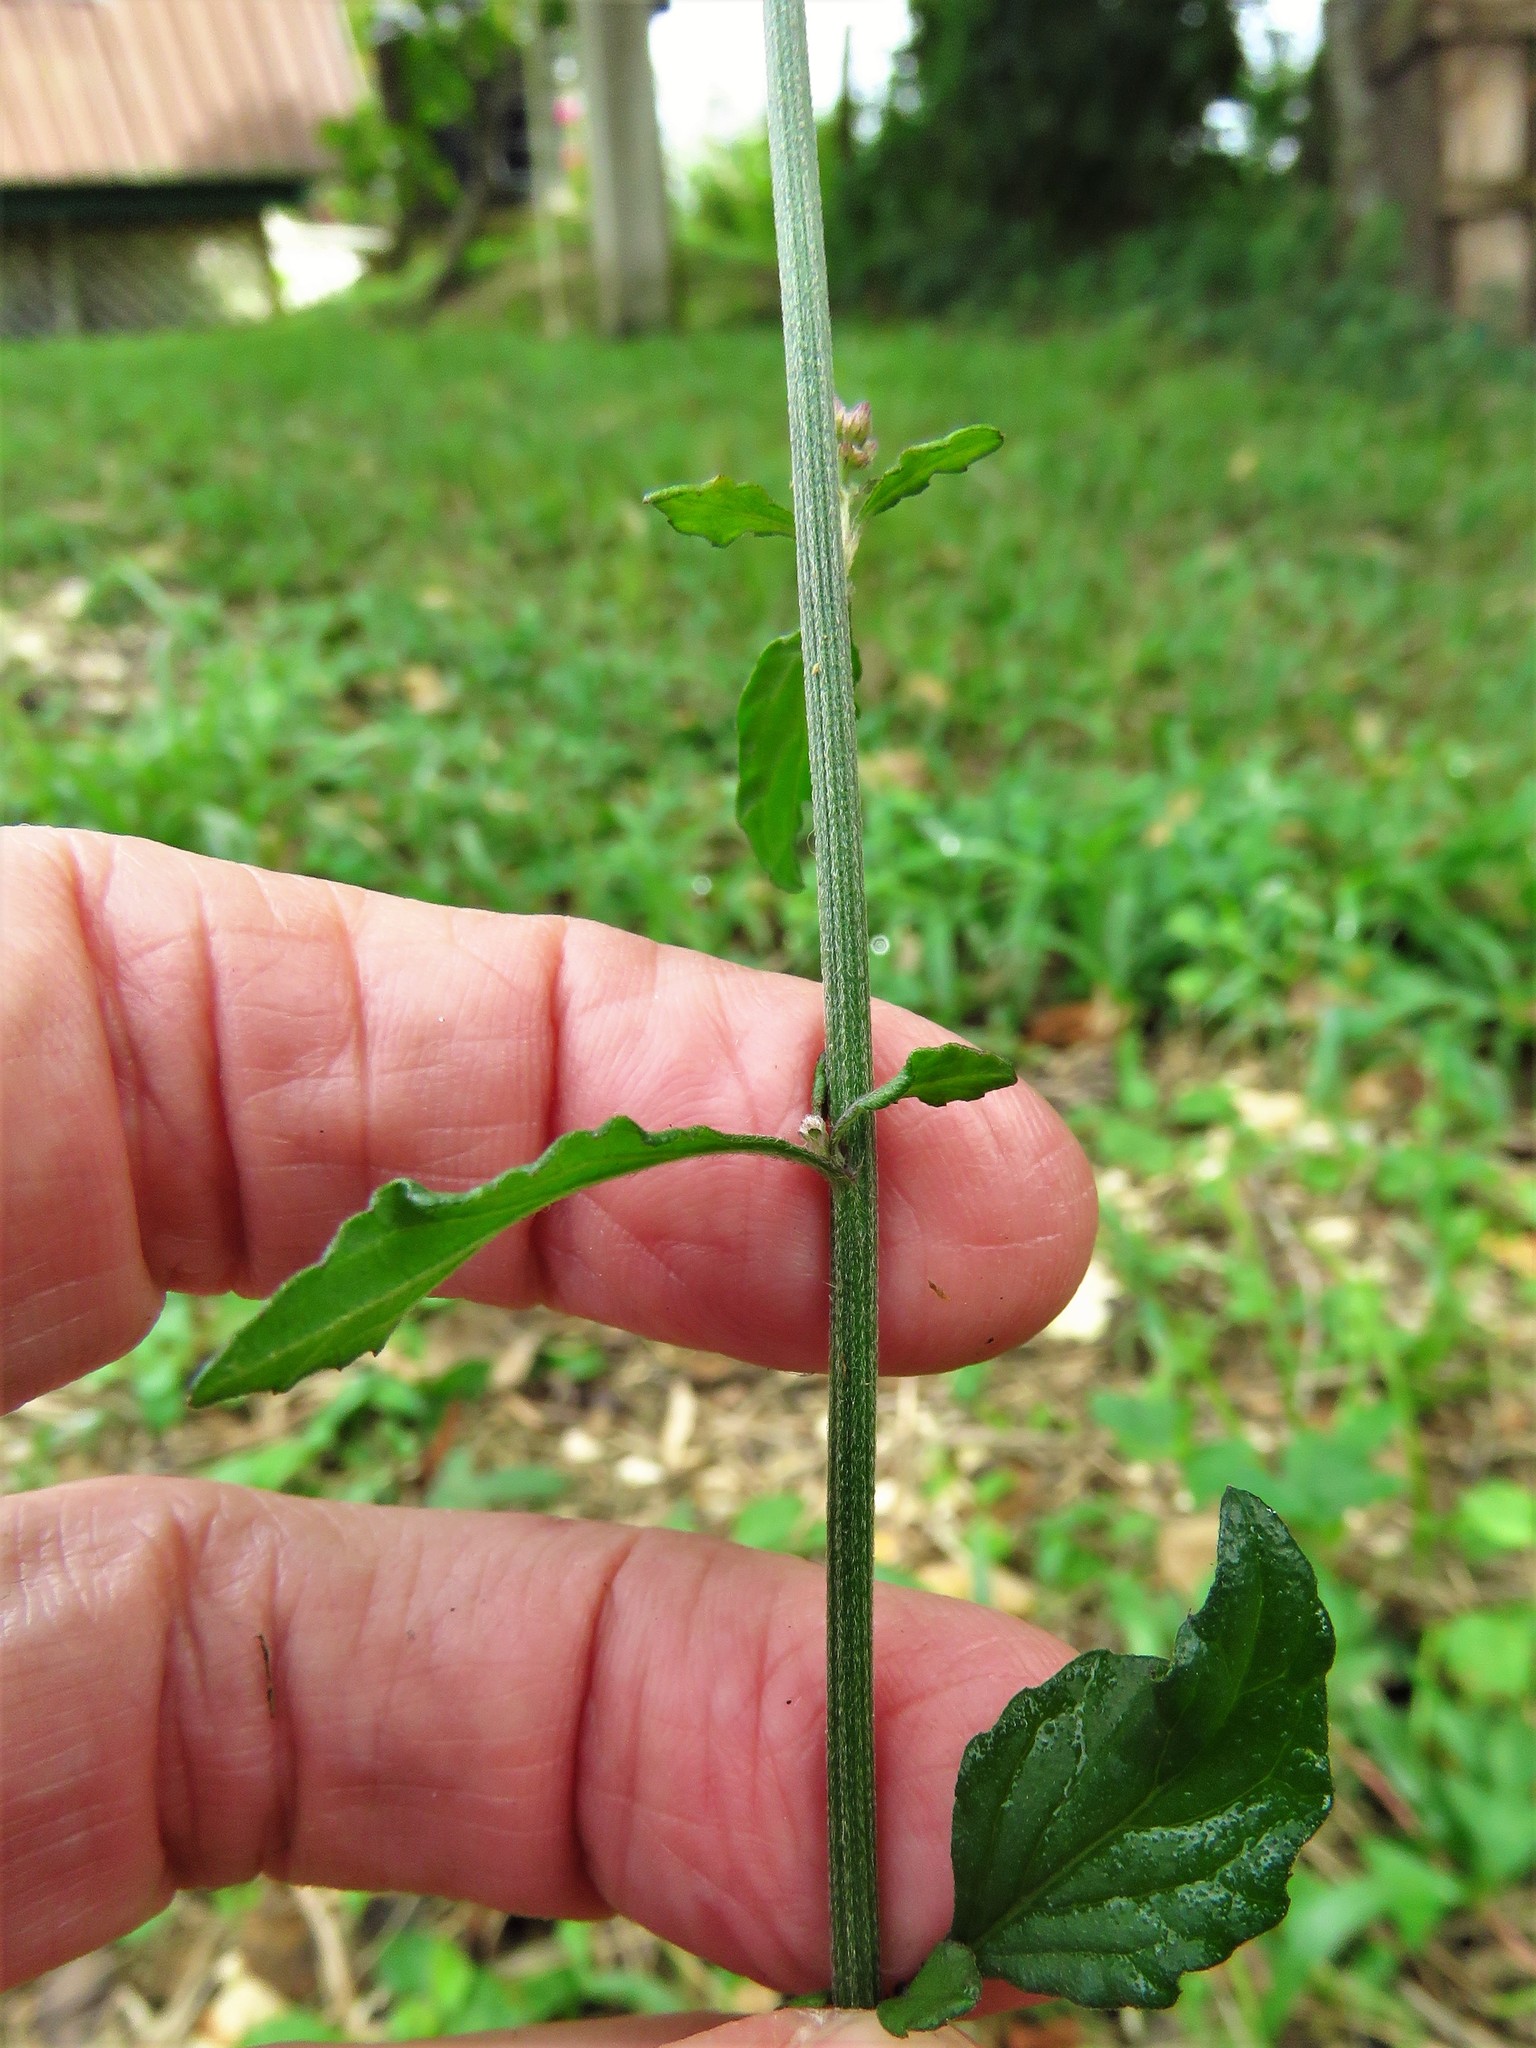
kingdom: Plantae
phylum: Tracheophyta
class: Magnoliopsida
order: Asterales
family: Asteraceae
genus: Cyanthillium
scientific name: Cyanthillium cinereum
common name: Little ironweed
